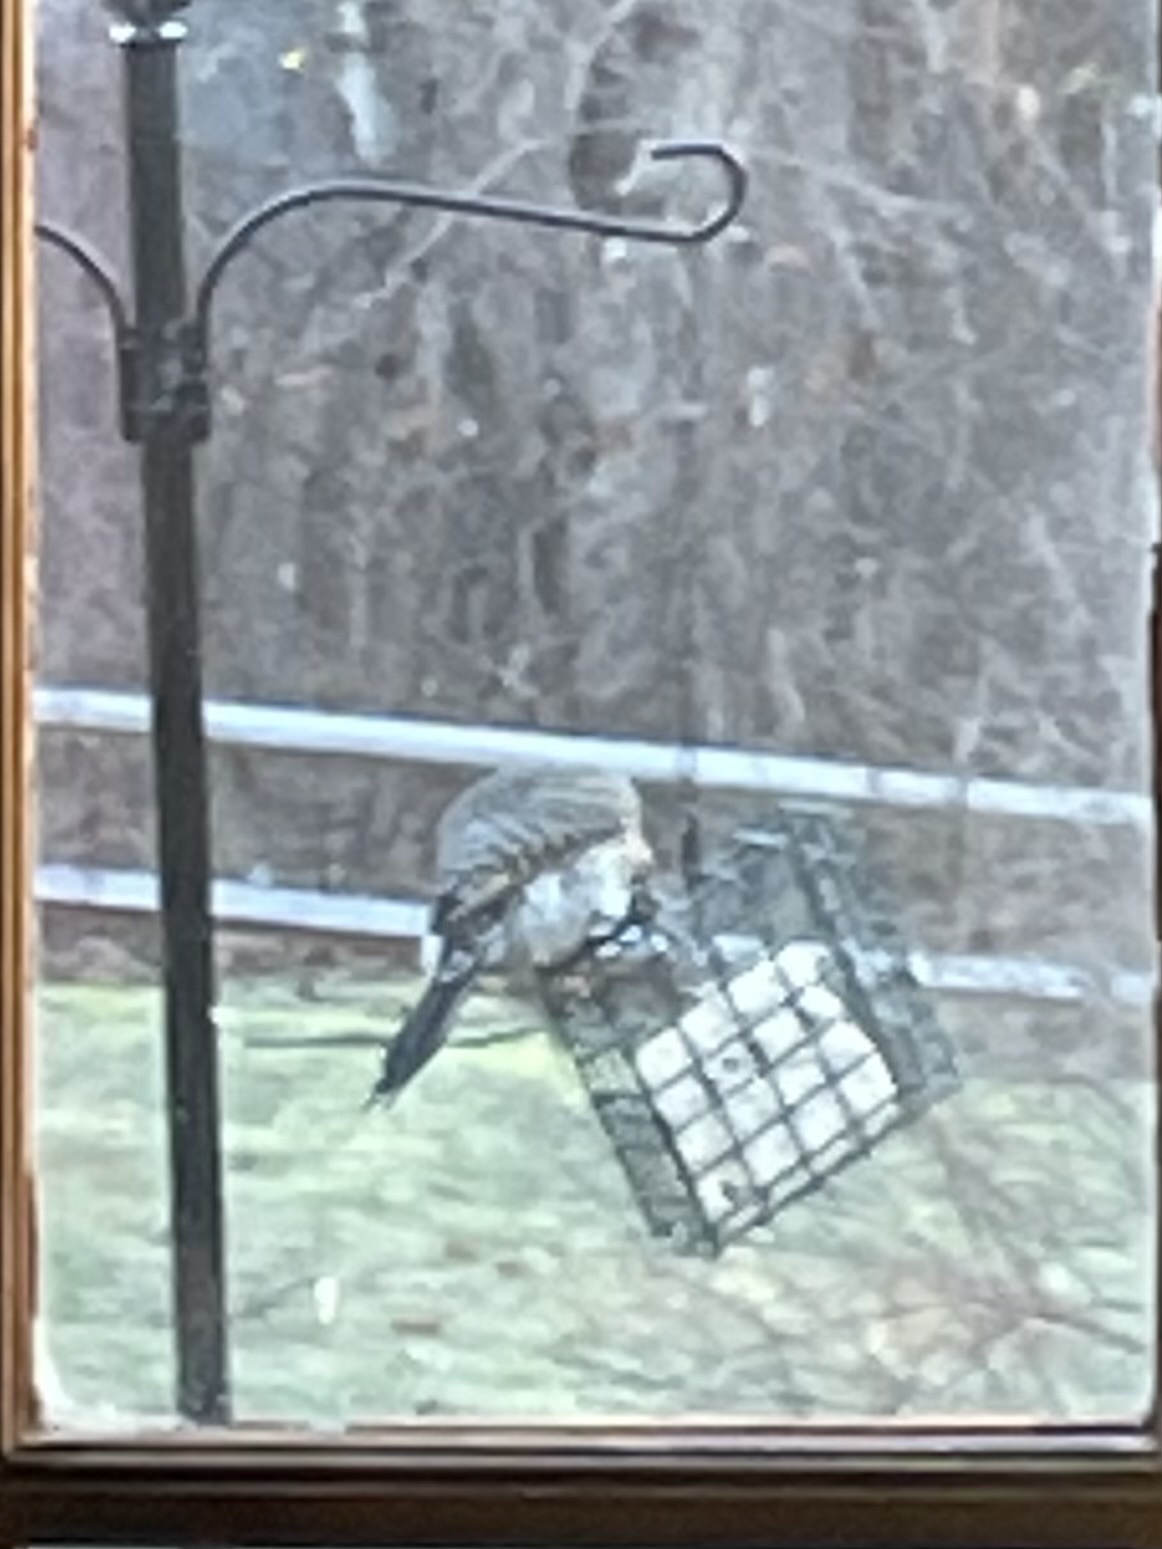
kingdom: Animalia
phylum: Chordata
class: Aves
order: Piciformes
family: Picidae
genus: Colaptes
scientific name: Colaptes auratus
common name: Northern flicker
